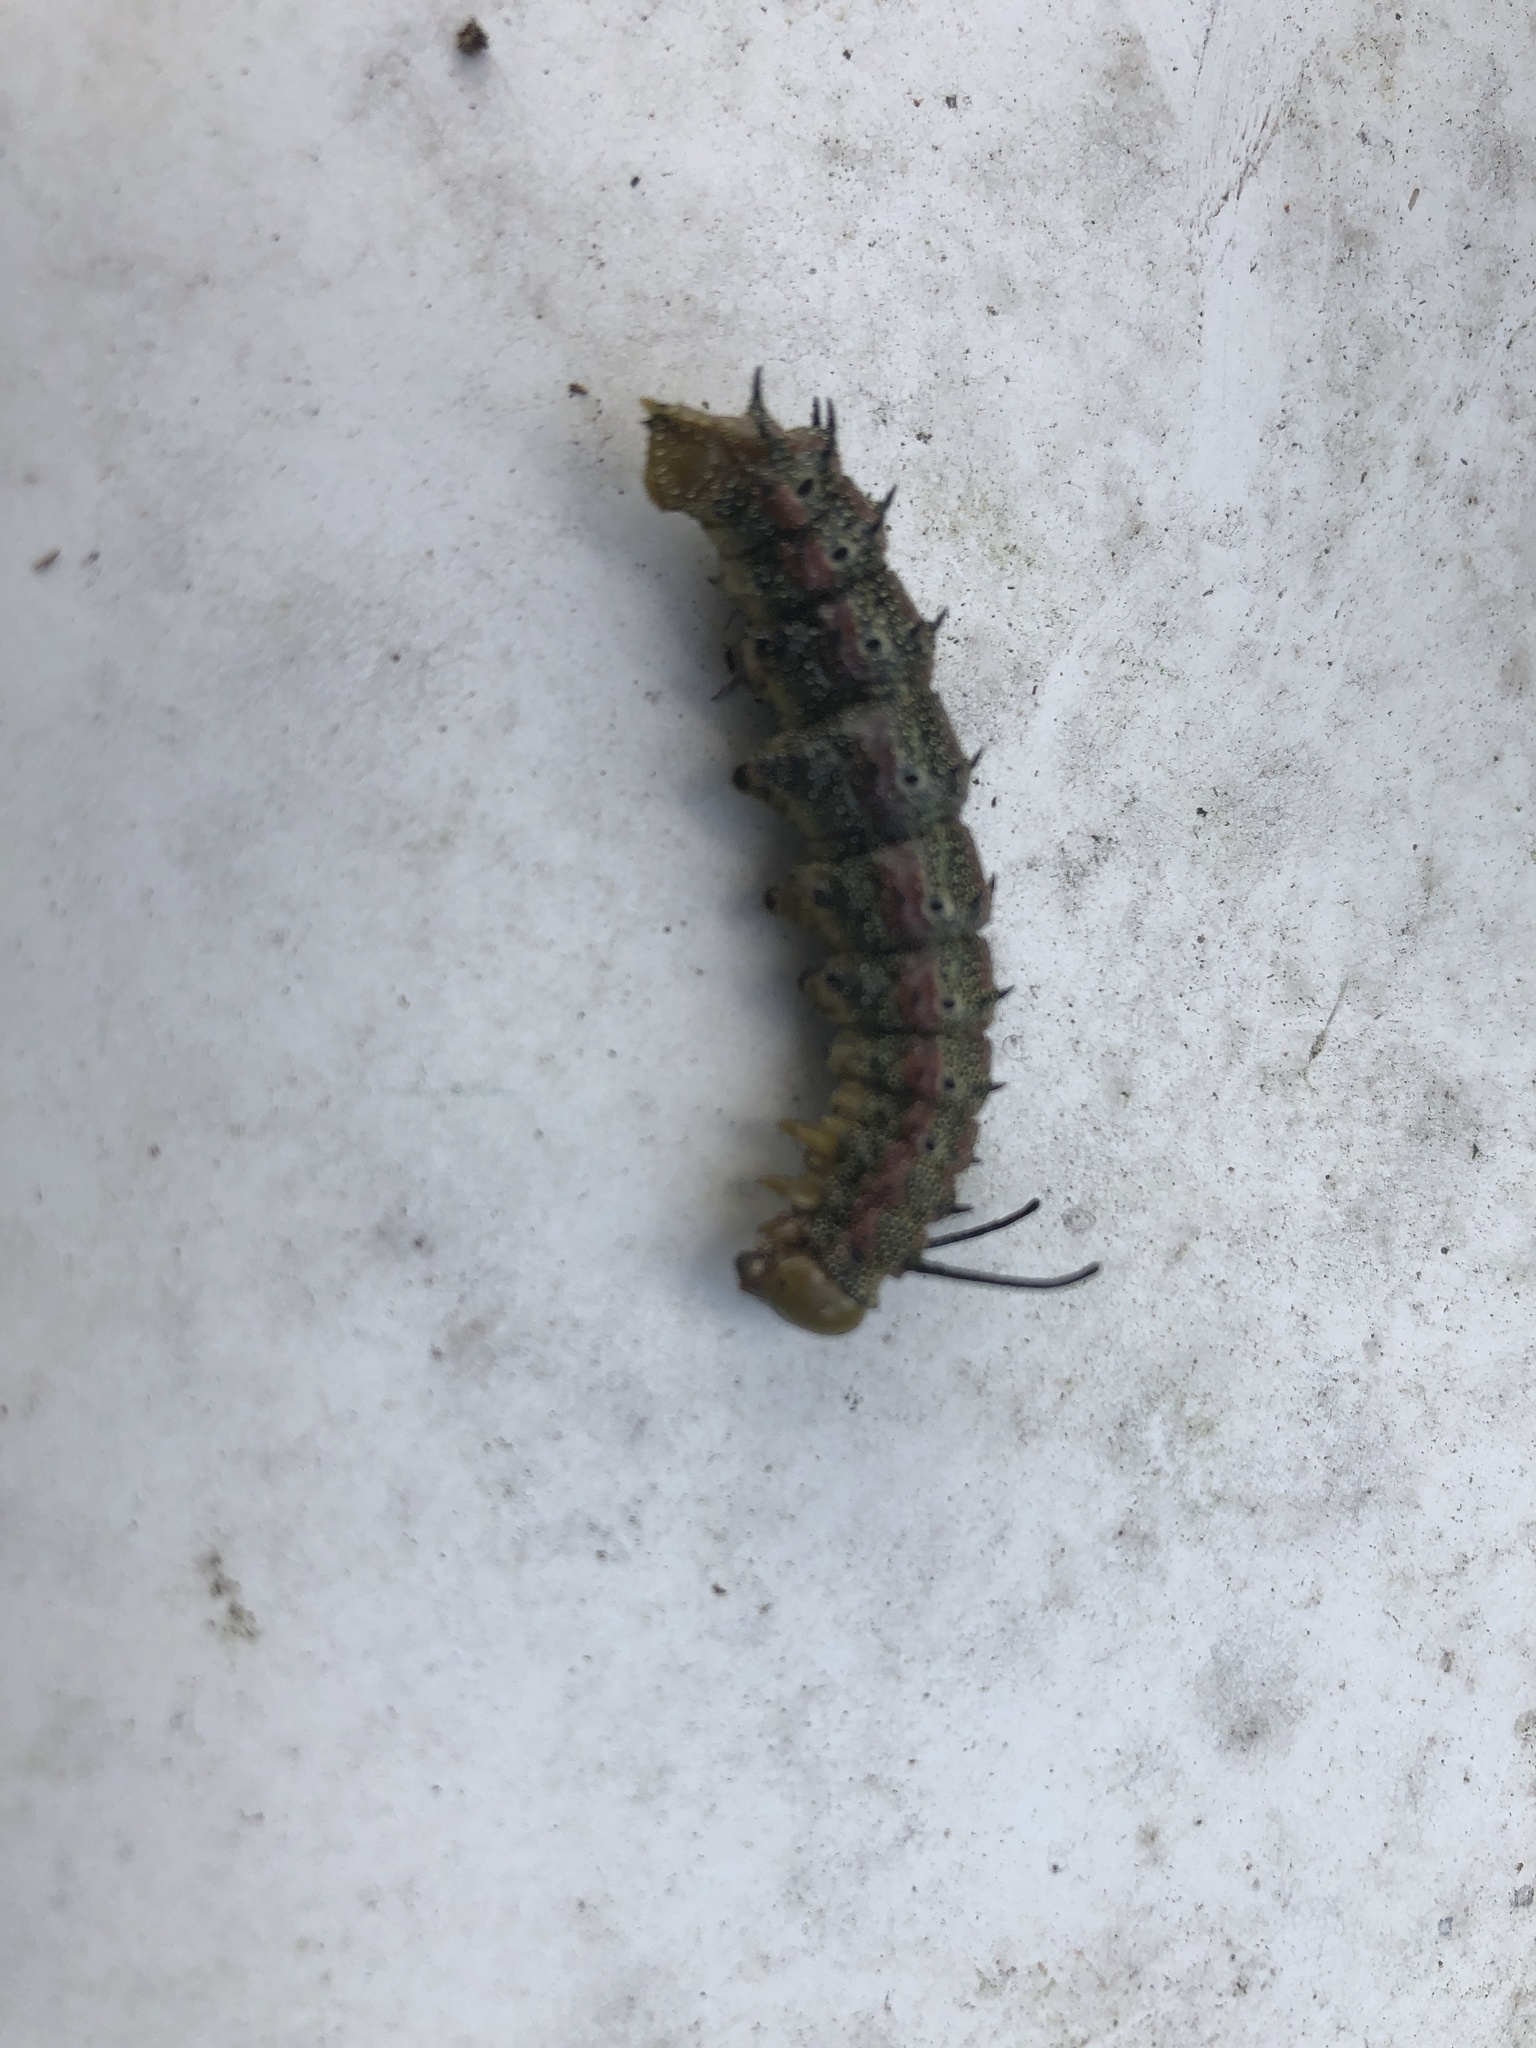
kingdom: Animalia
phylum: Arthropoda
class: Insecta
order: Lepidoptera
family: Saturniidae
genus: Anisota
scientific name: Anisota virginiensis
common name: Pink striped oakworm moth
